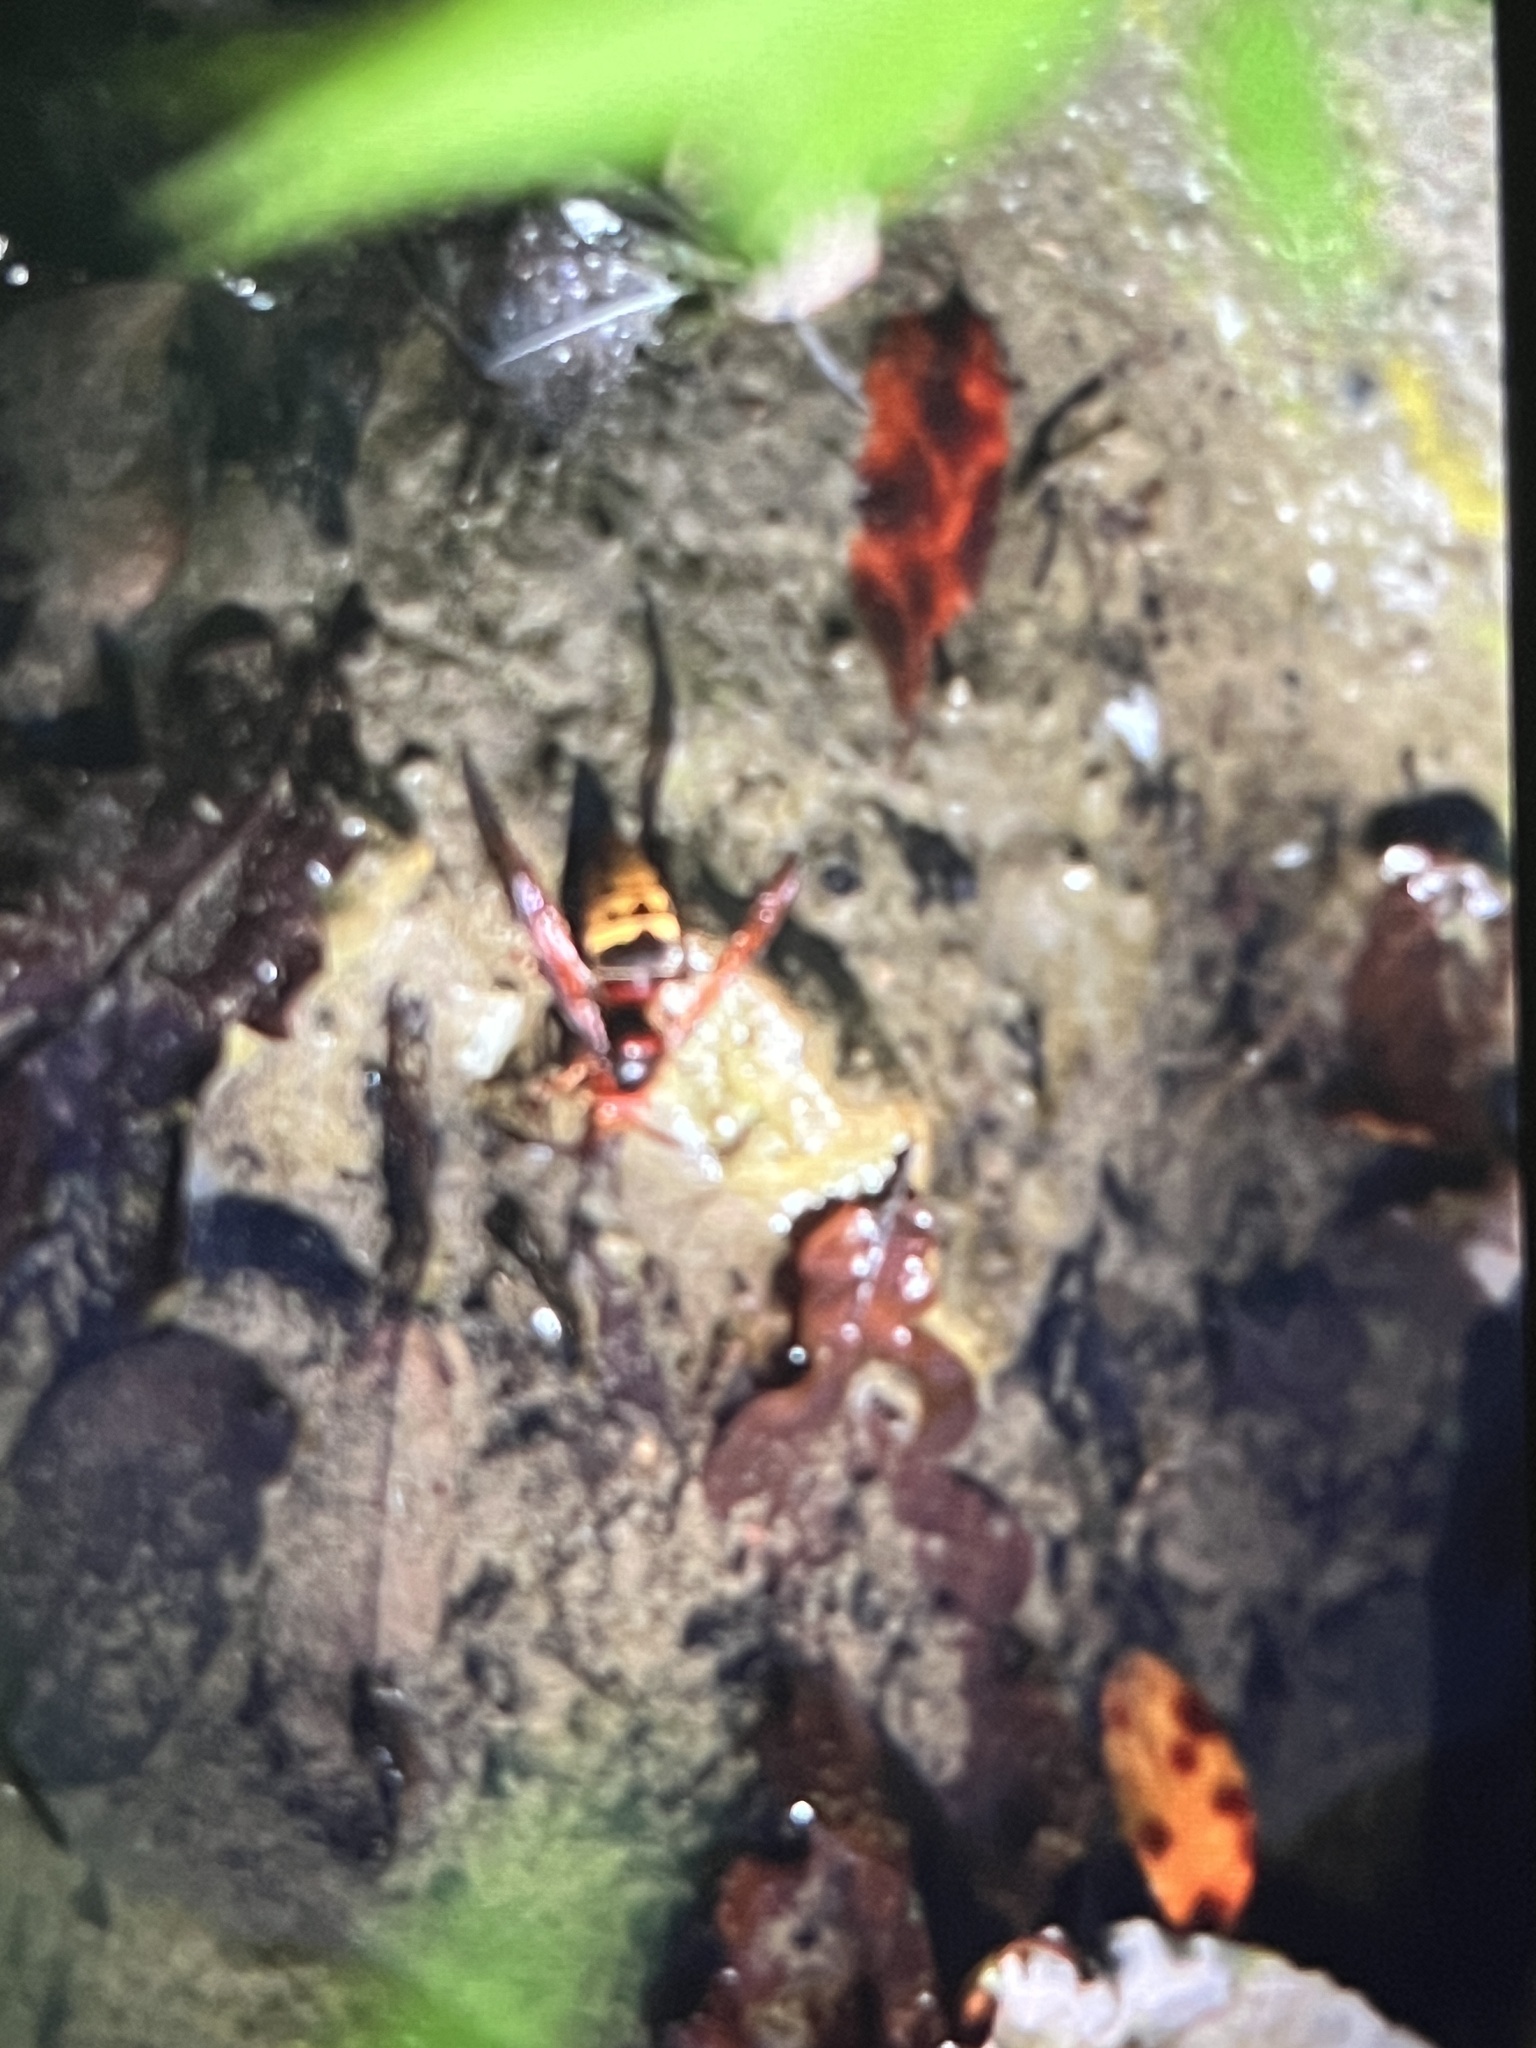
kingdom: Animalia
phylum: Arthropoda
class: Insecta
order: Hymenoptera
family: Vespidae
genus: Vespa
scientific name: Vespa crabro
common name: Hornet
